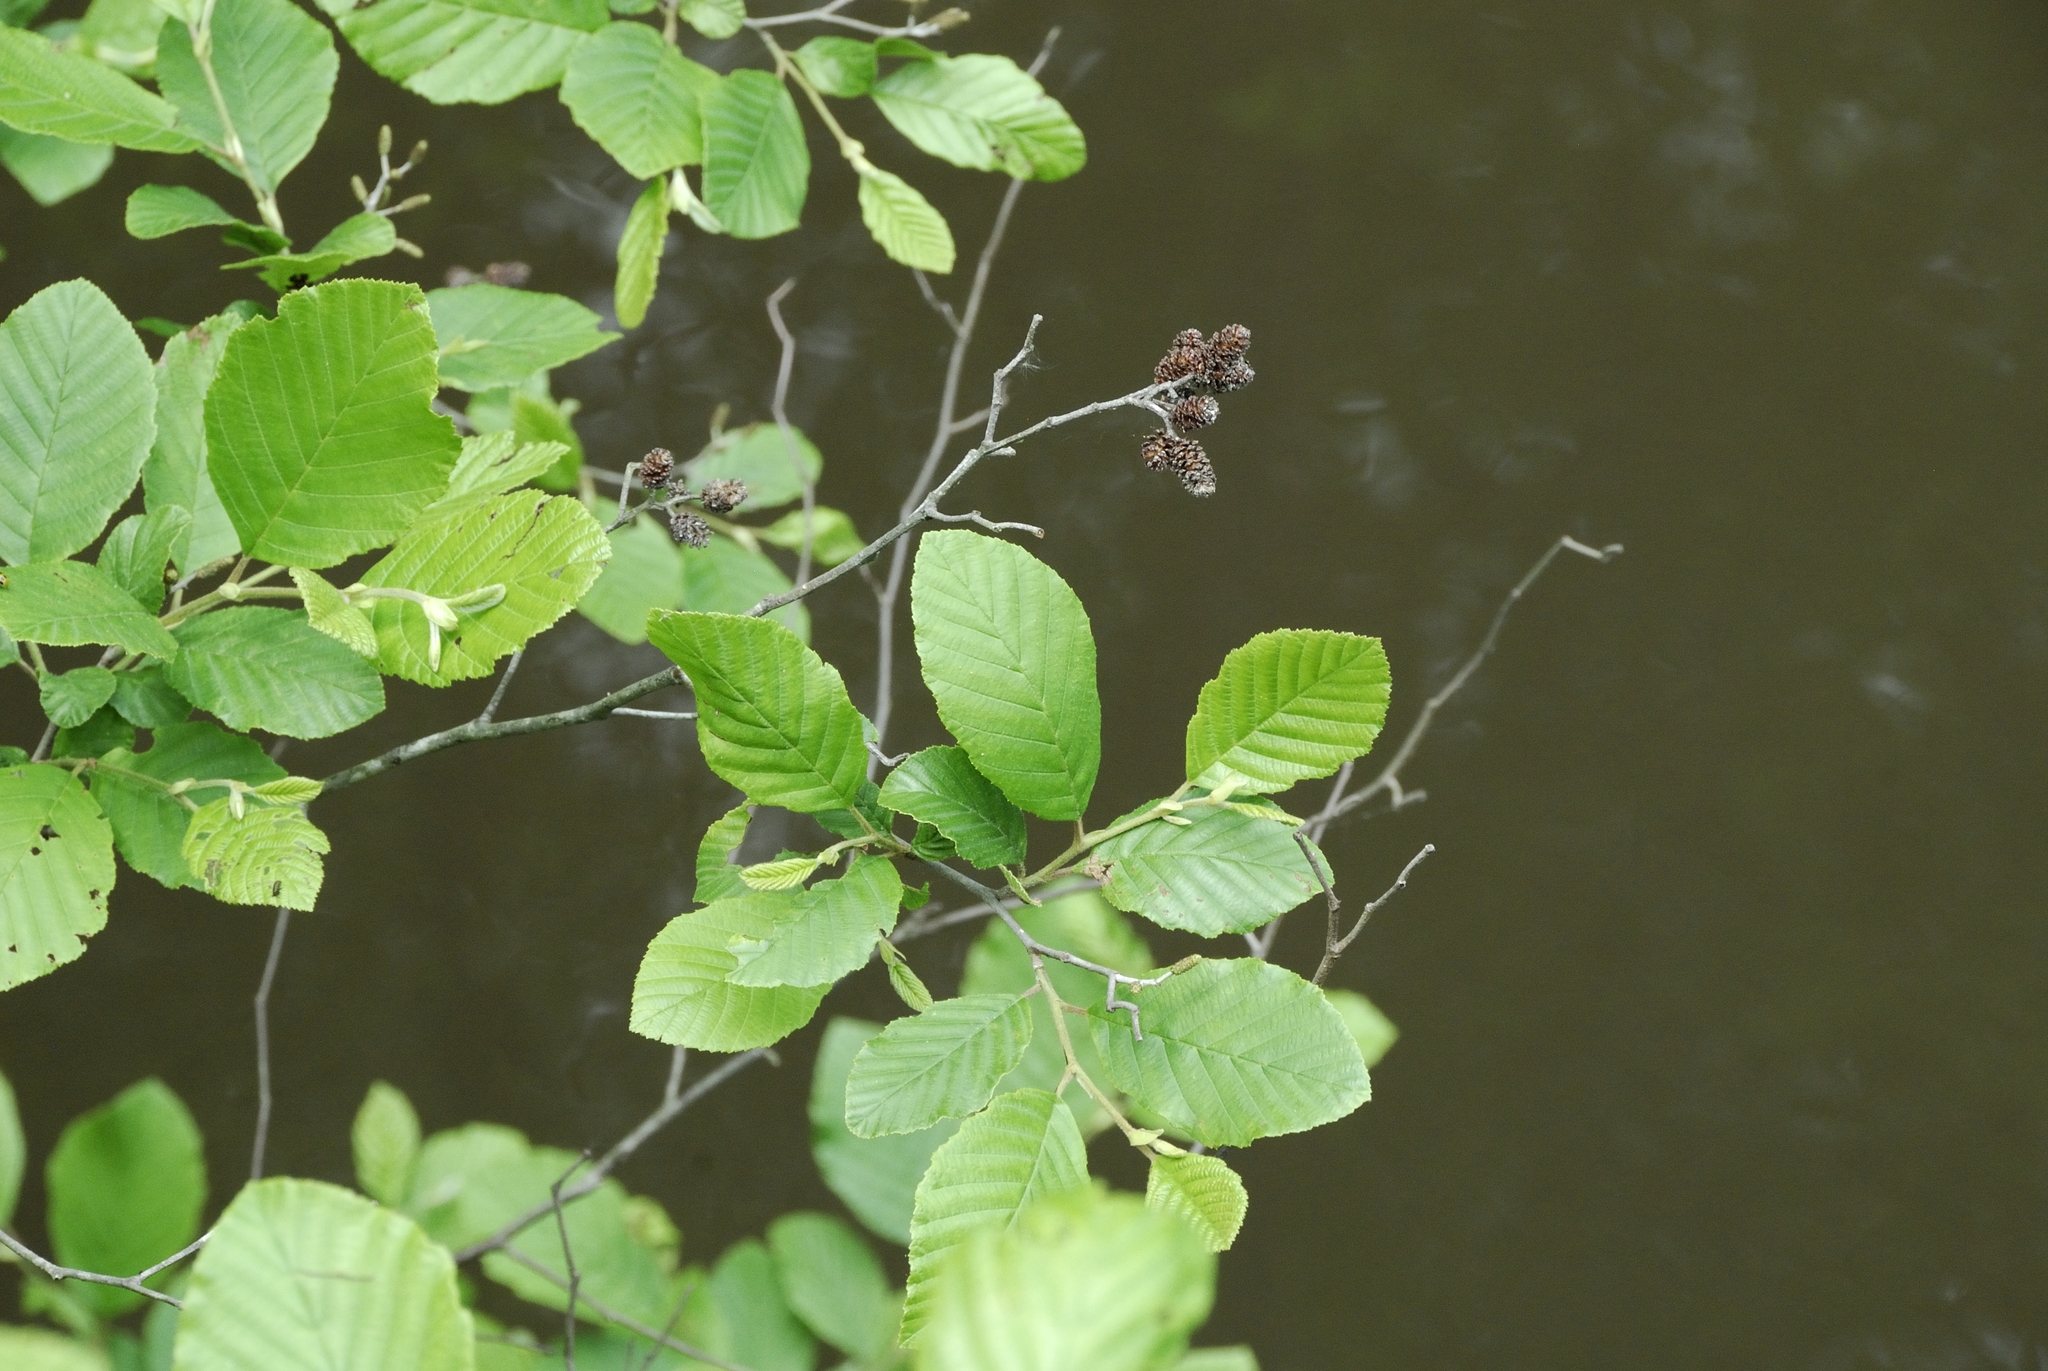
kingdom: Plantae
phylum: Tracheophyta
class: Magnoliopsida
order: Fagales
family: Betulaceae
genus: Alnus
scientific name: Alnus serrulata
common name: Hazel alder
